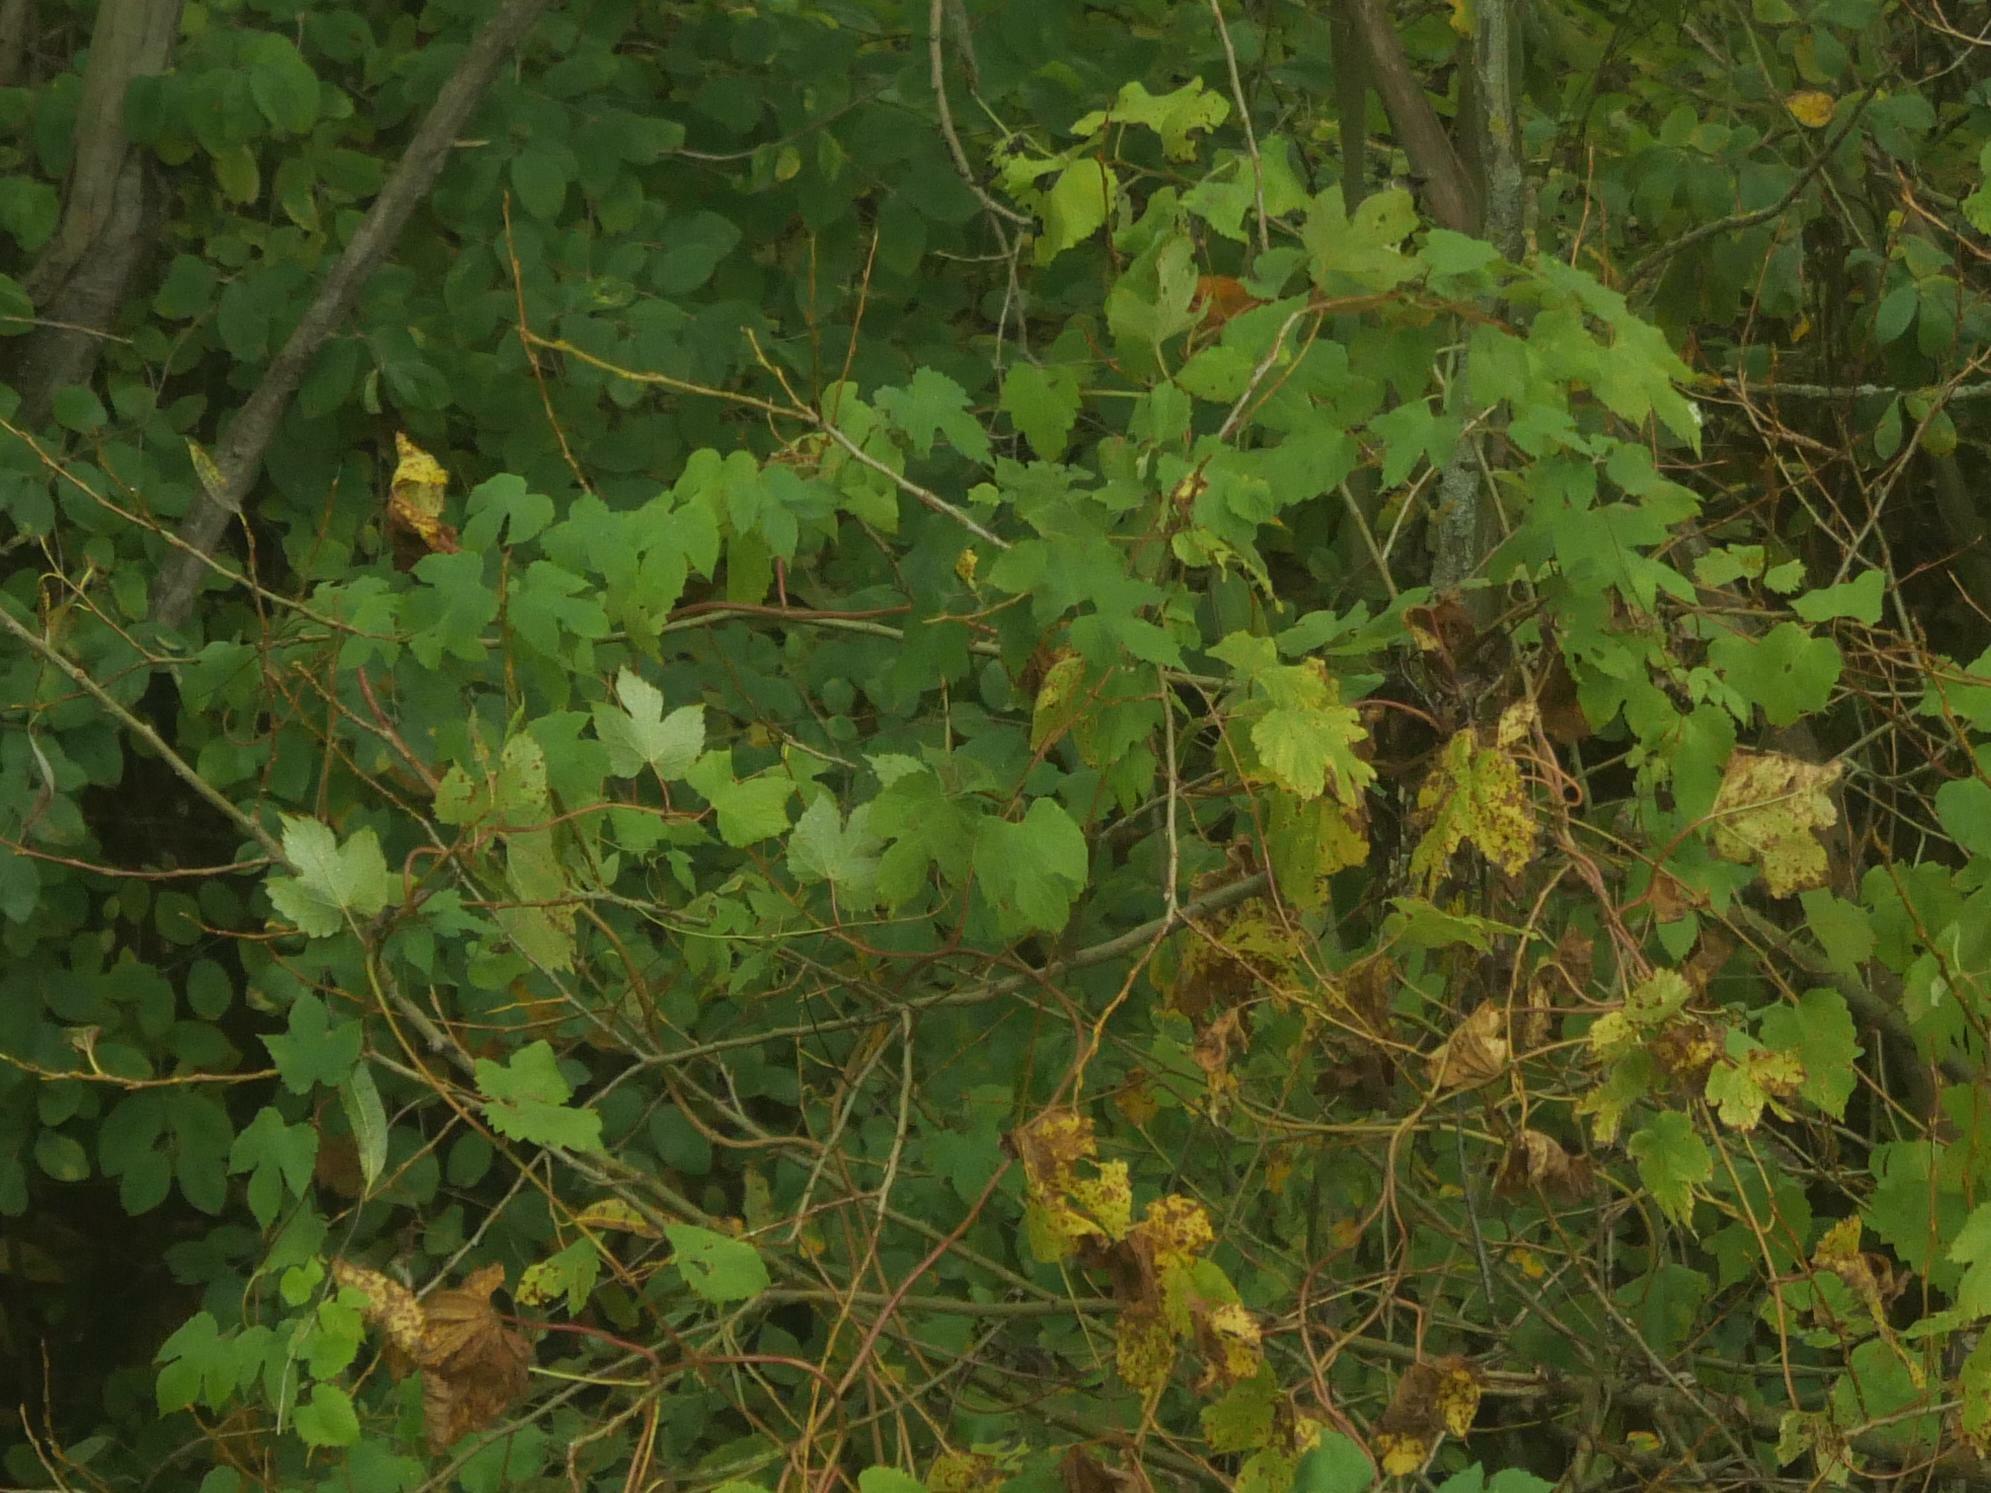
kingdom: Plantae
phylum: Tracheophyta
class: Magnoliopsida
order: Rosales
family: Cannabaceae
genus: Humulus
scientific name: Humulus lupulus
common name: Hop
